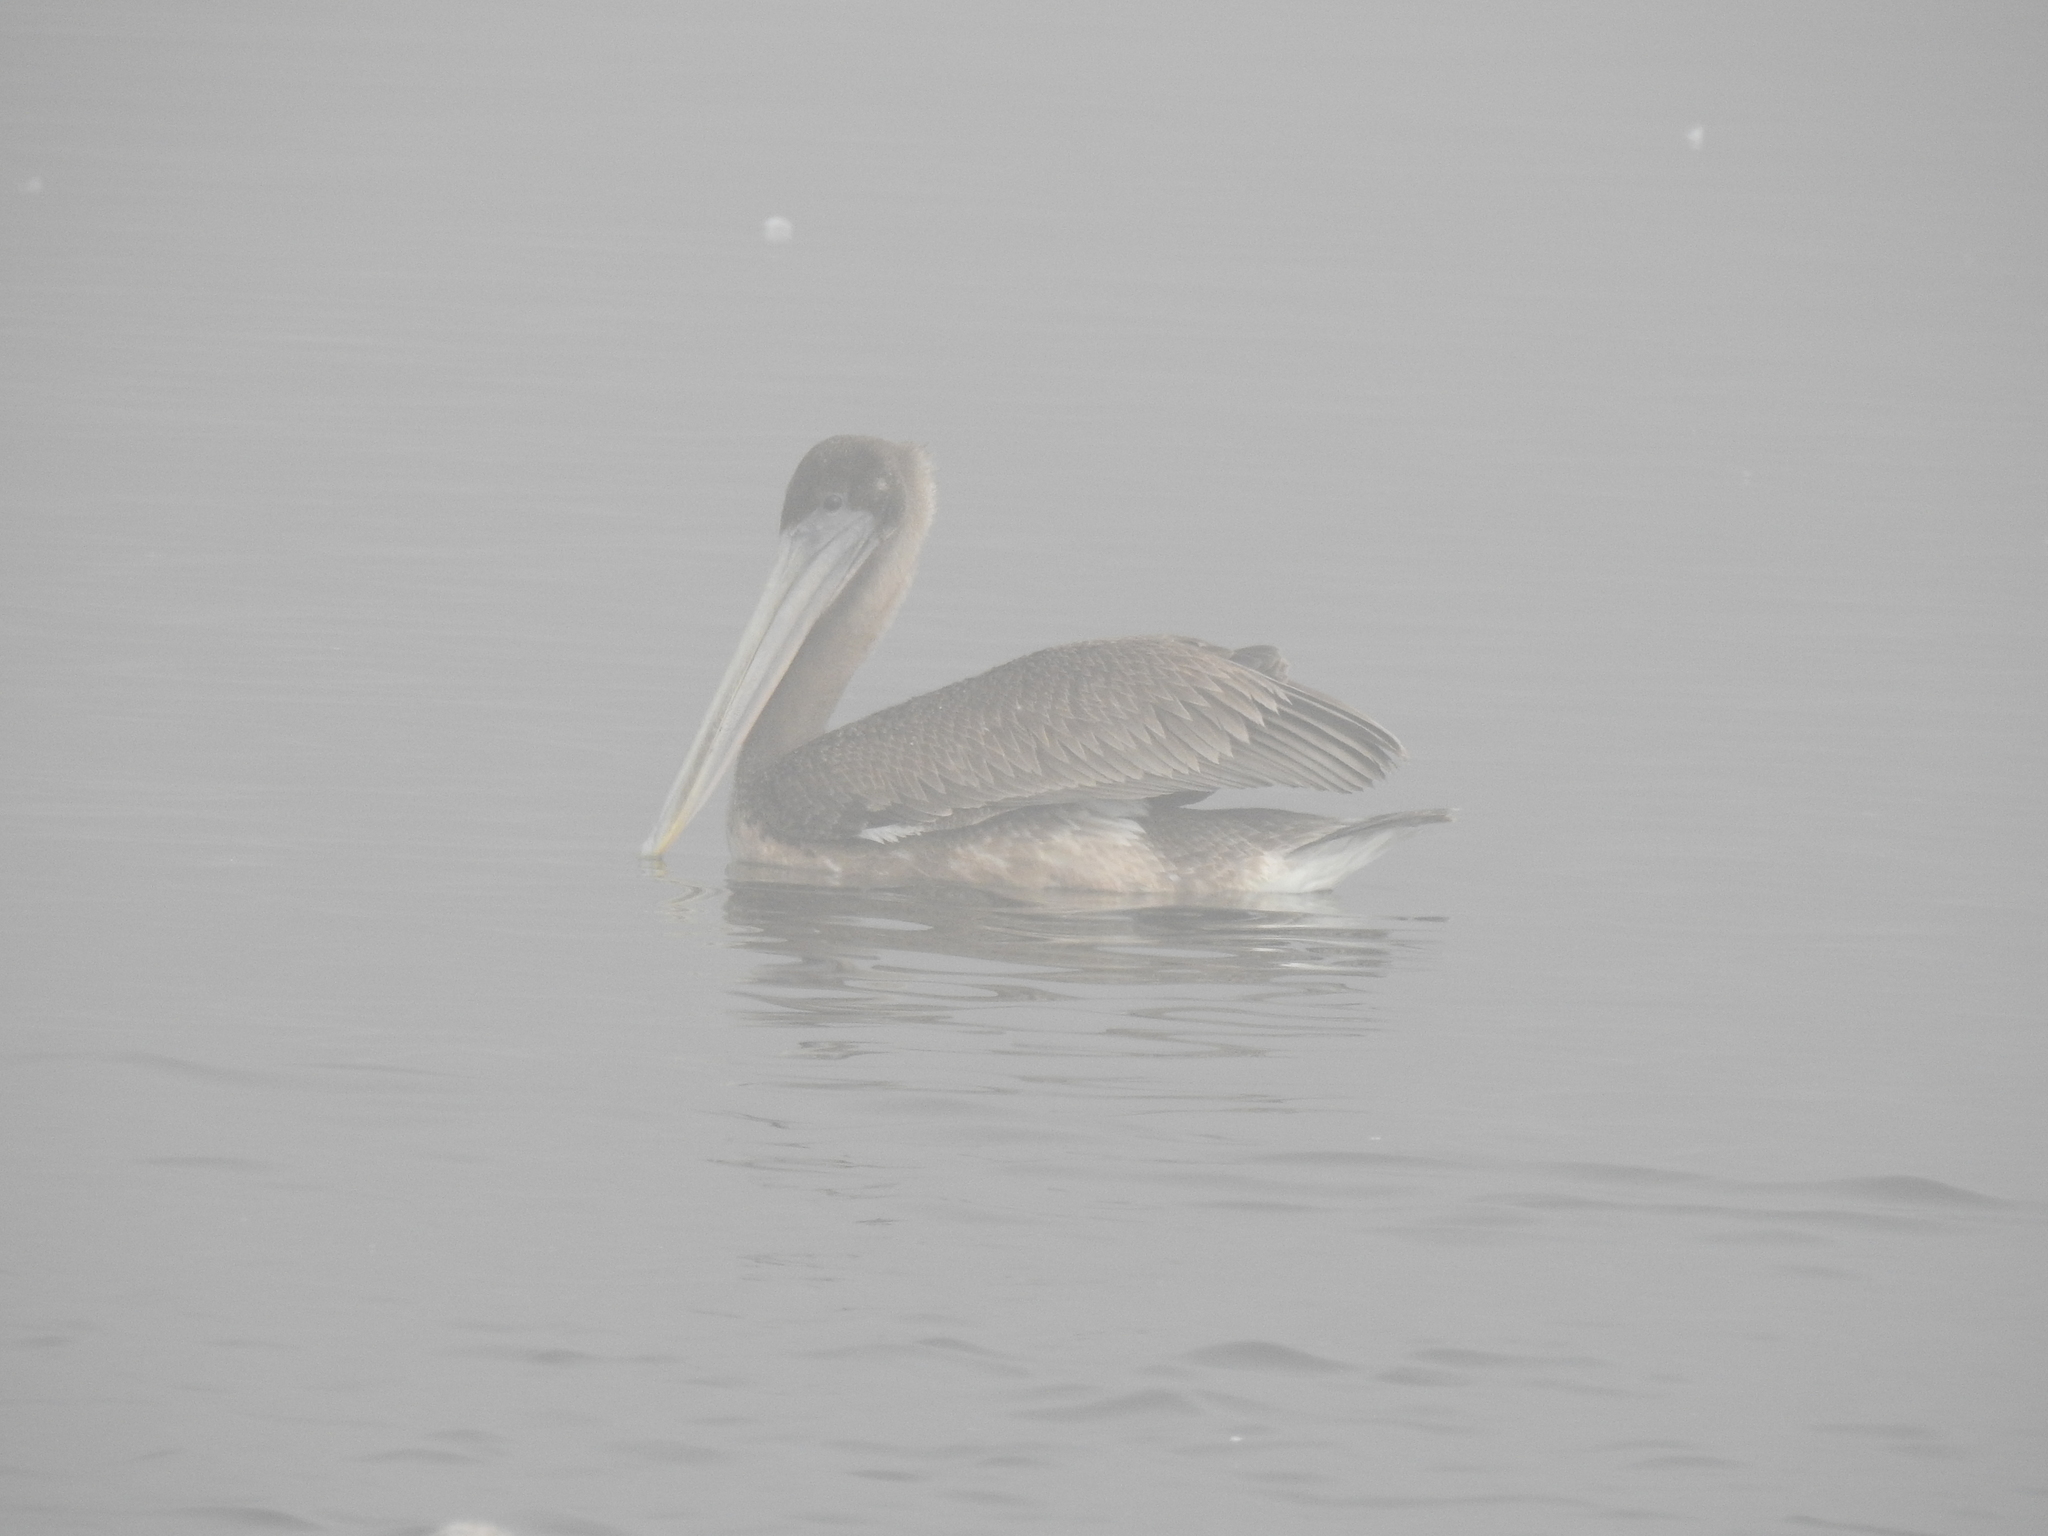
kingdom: Animalia
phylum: Chordata
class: Aves
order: Pelecaniformes
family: Pelecanidae
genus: Pelecanus
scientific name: Pelecanus occidentalis
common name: Brown pelican
